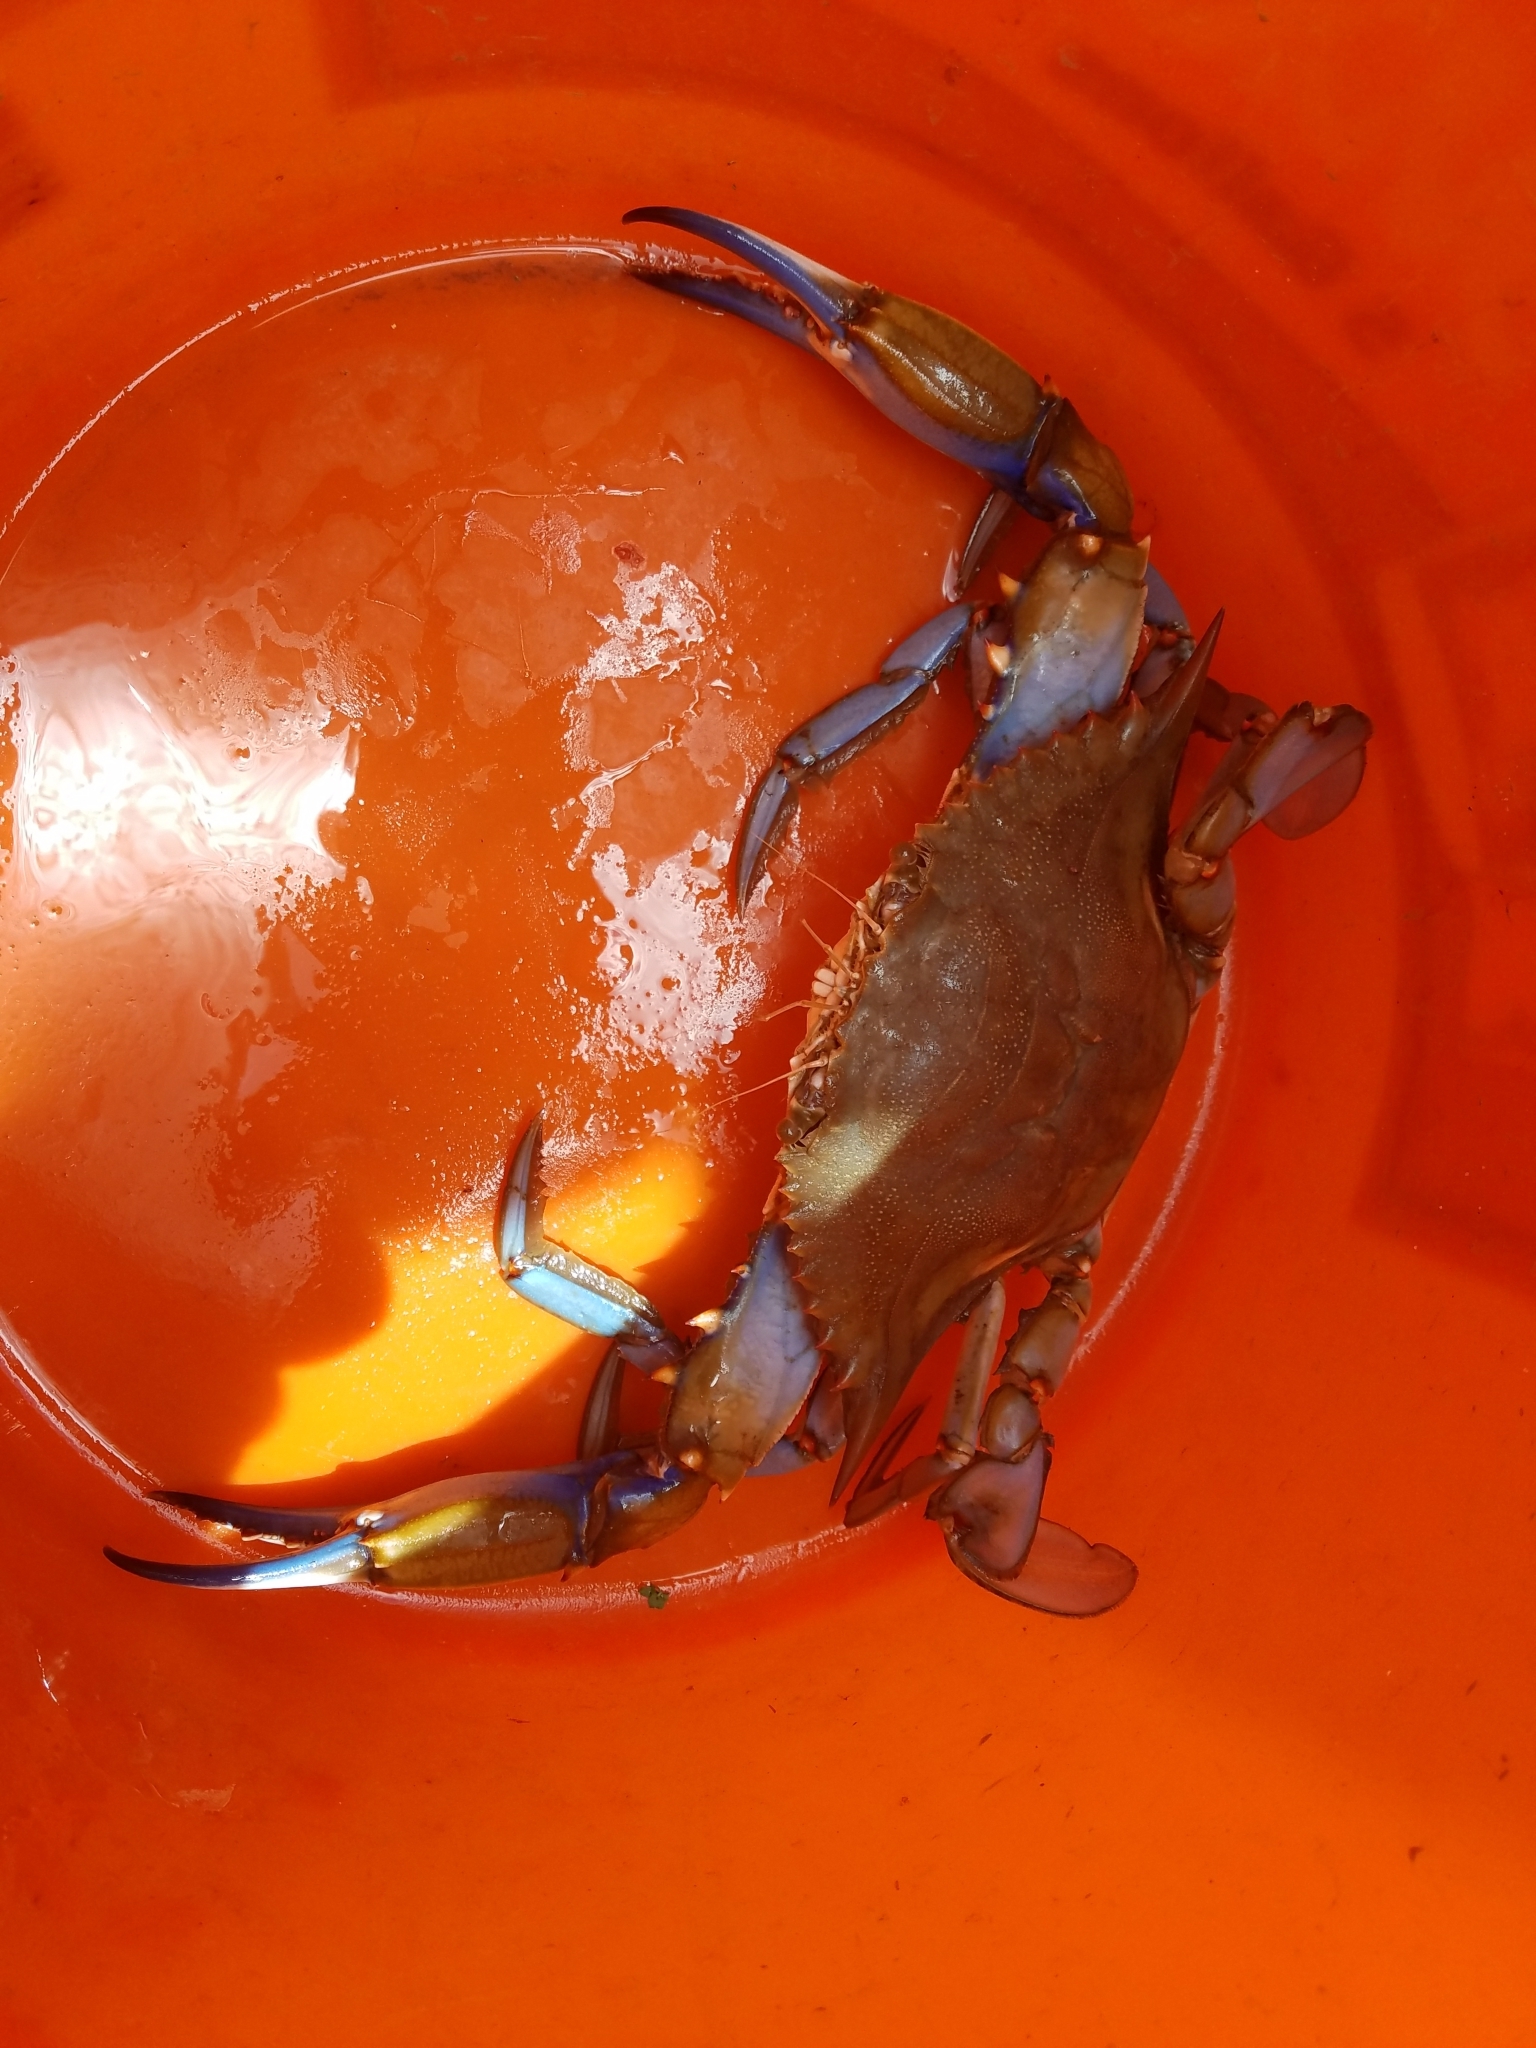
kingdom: Animalia
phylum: Arthropoda
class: Malacostraca
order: Decapoda
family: Portunidae
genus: Callinectes
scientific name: Callinectes sapidus
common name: Blue crab
